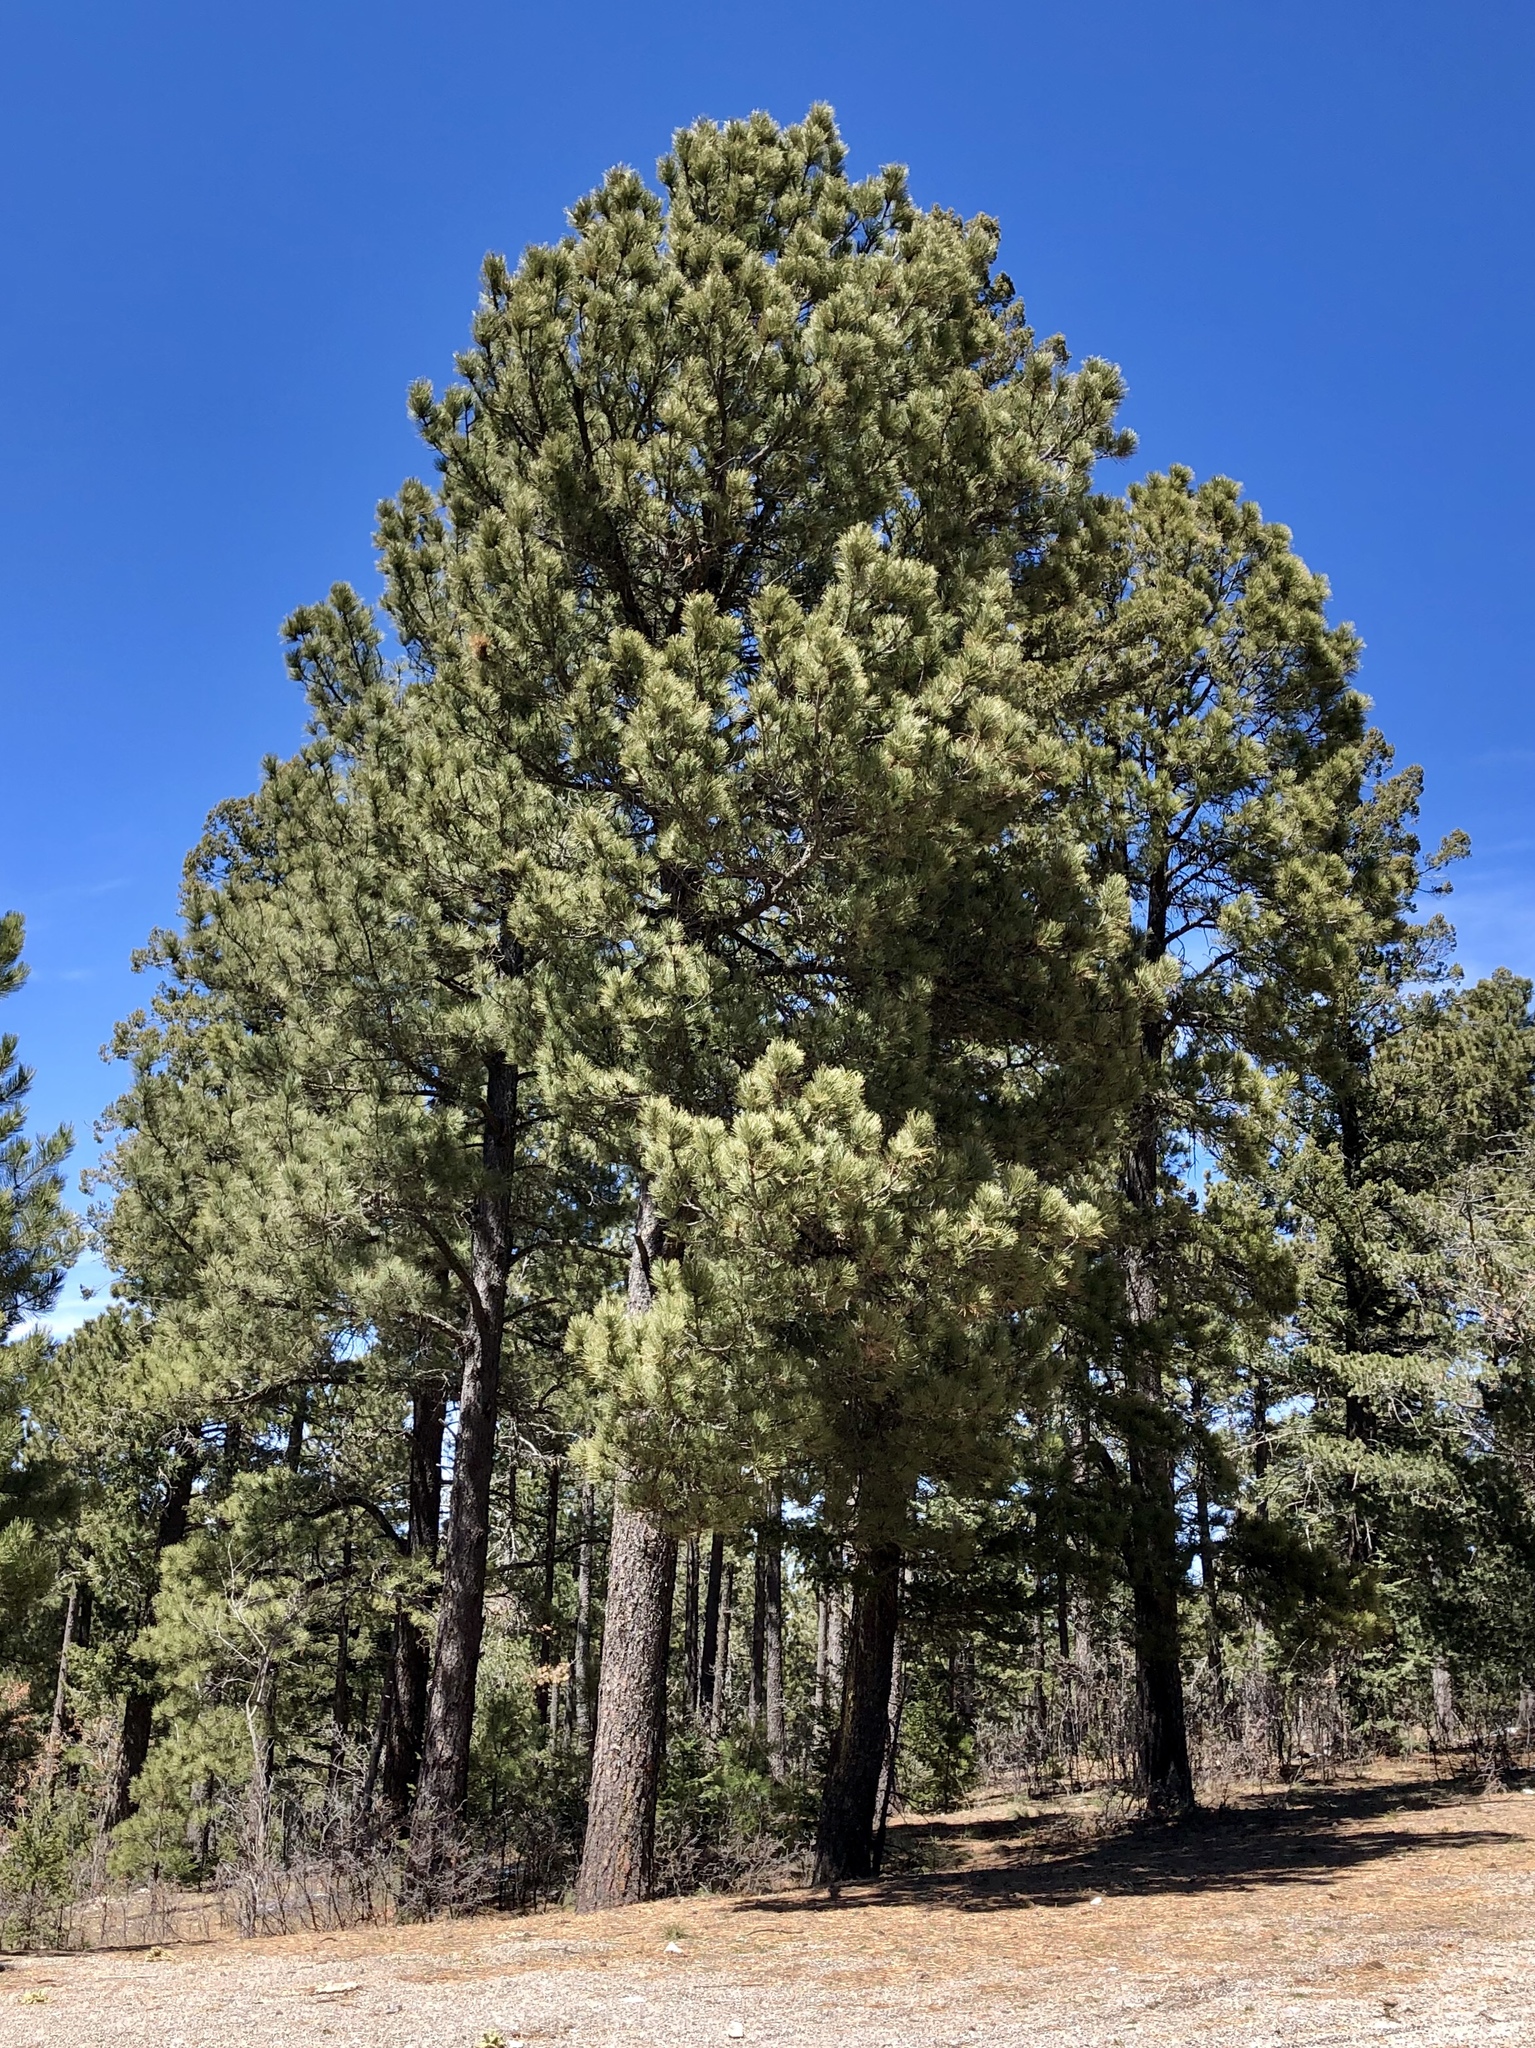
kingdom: Plantae
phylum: Tracheophyta
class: Pinopsida
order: Pinales
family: Pinaceae
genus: Pinus
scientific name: Pinus ponderosa
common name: Western yellow-pine
